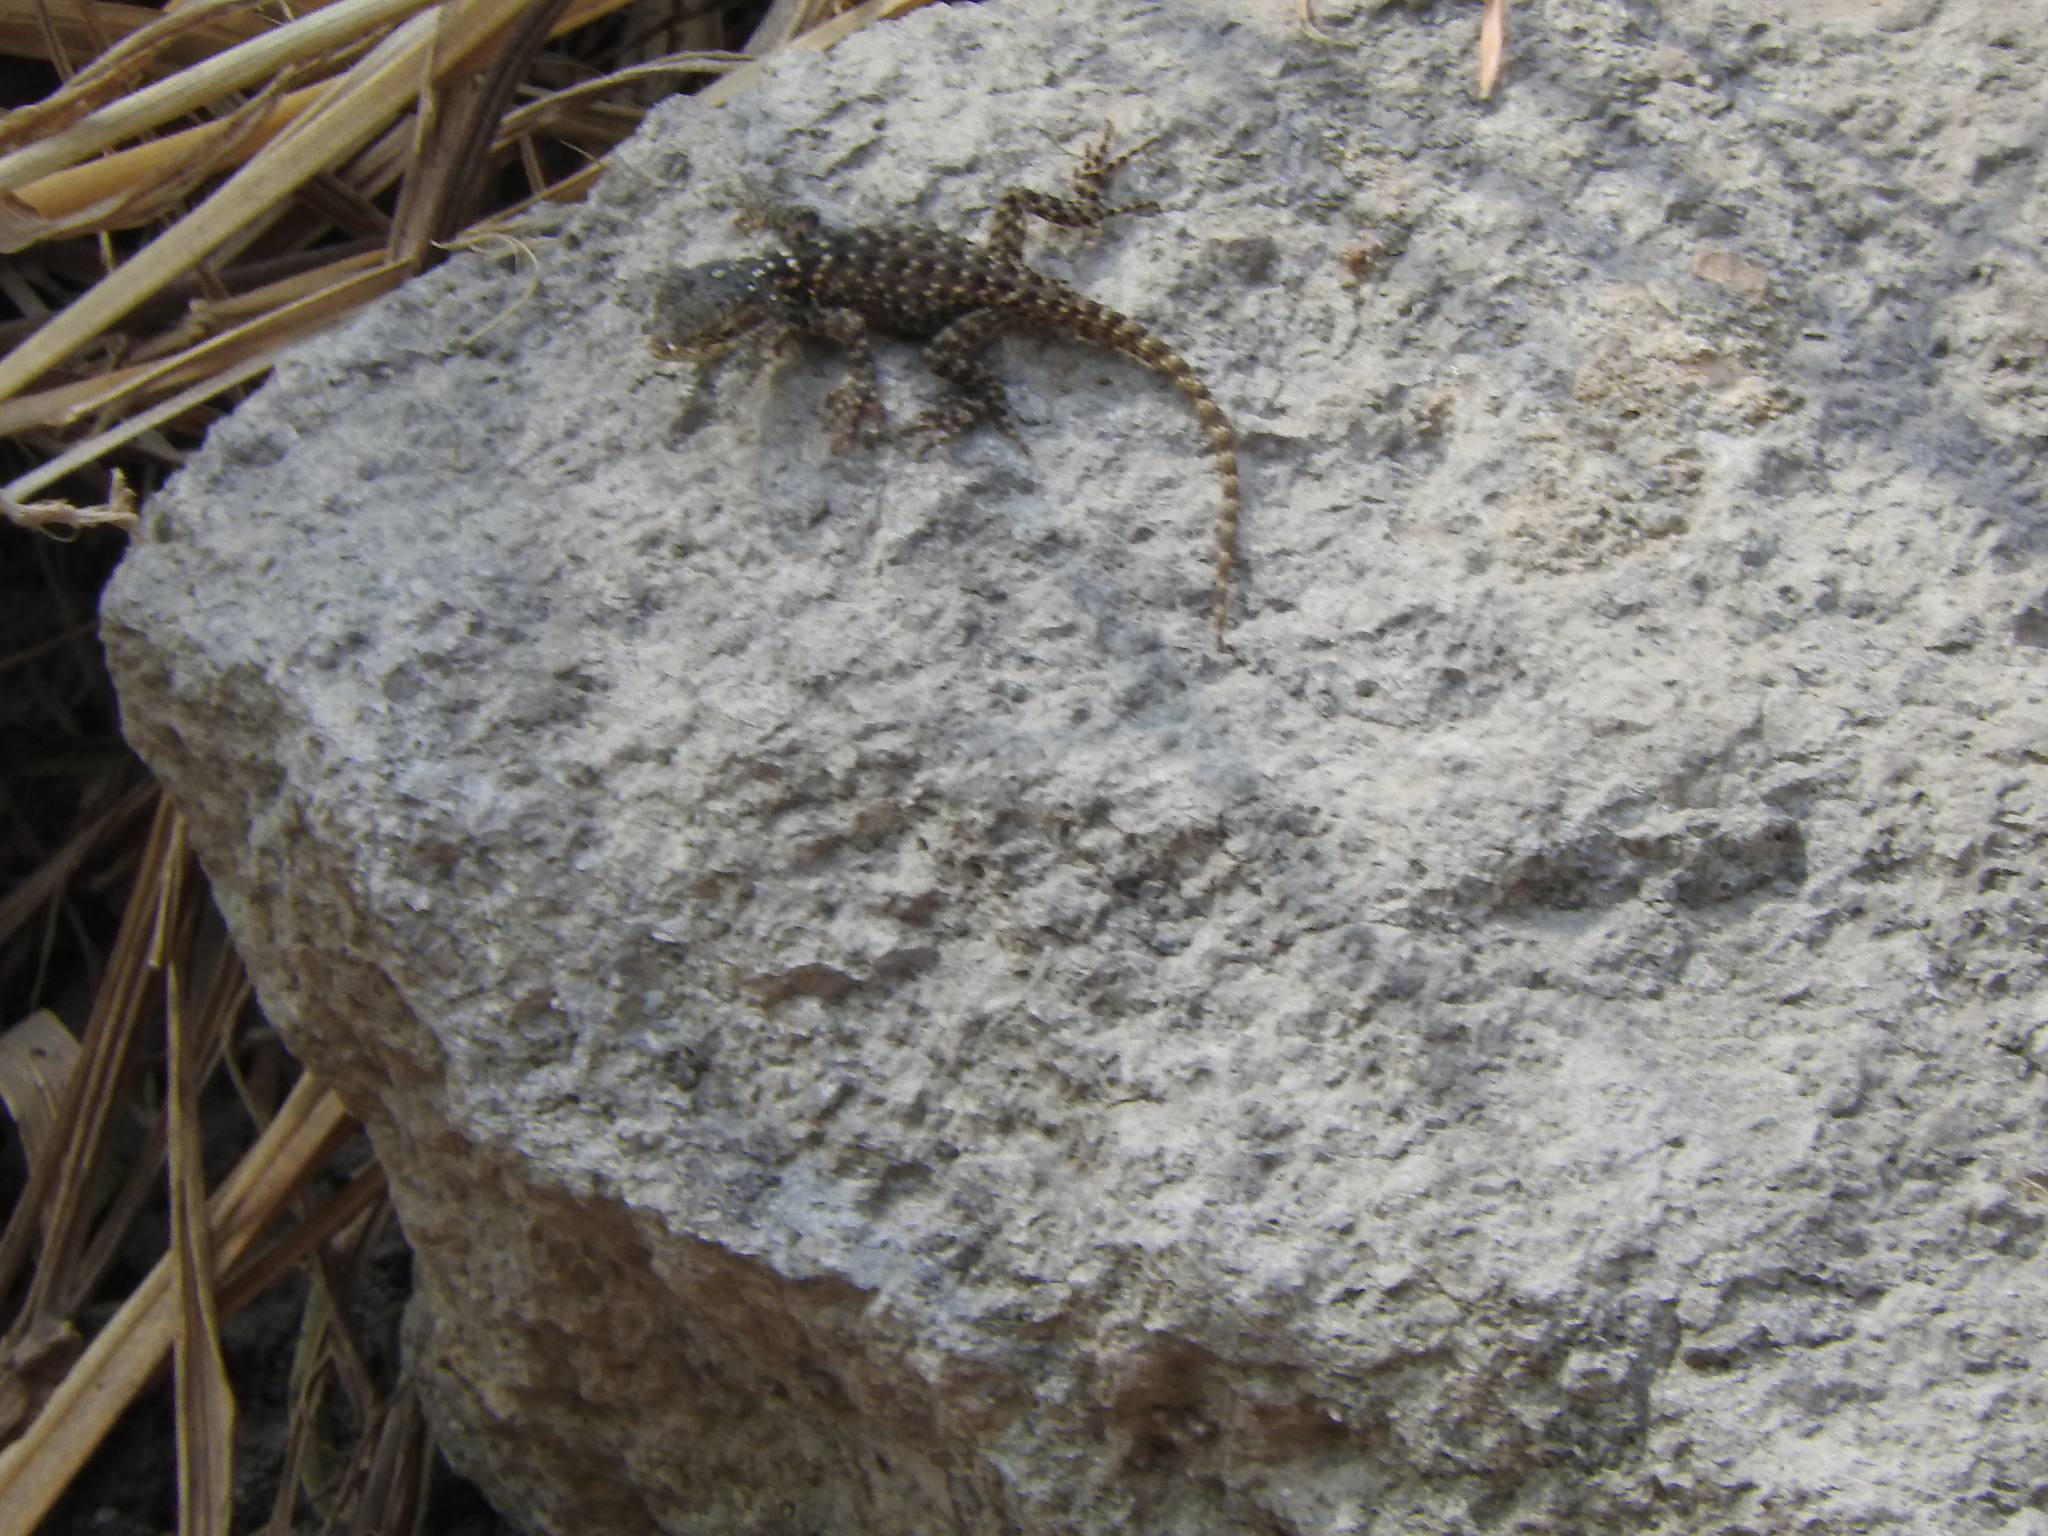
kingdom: Animalia
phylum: Chordata
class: Squamata
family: Phrynosomatidae
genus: Sceloporus
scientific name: Sceloporus torquatus
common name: Central plateau torquate lizard [melanogaster]
